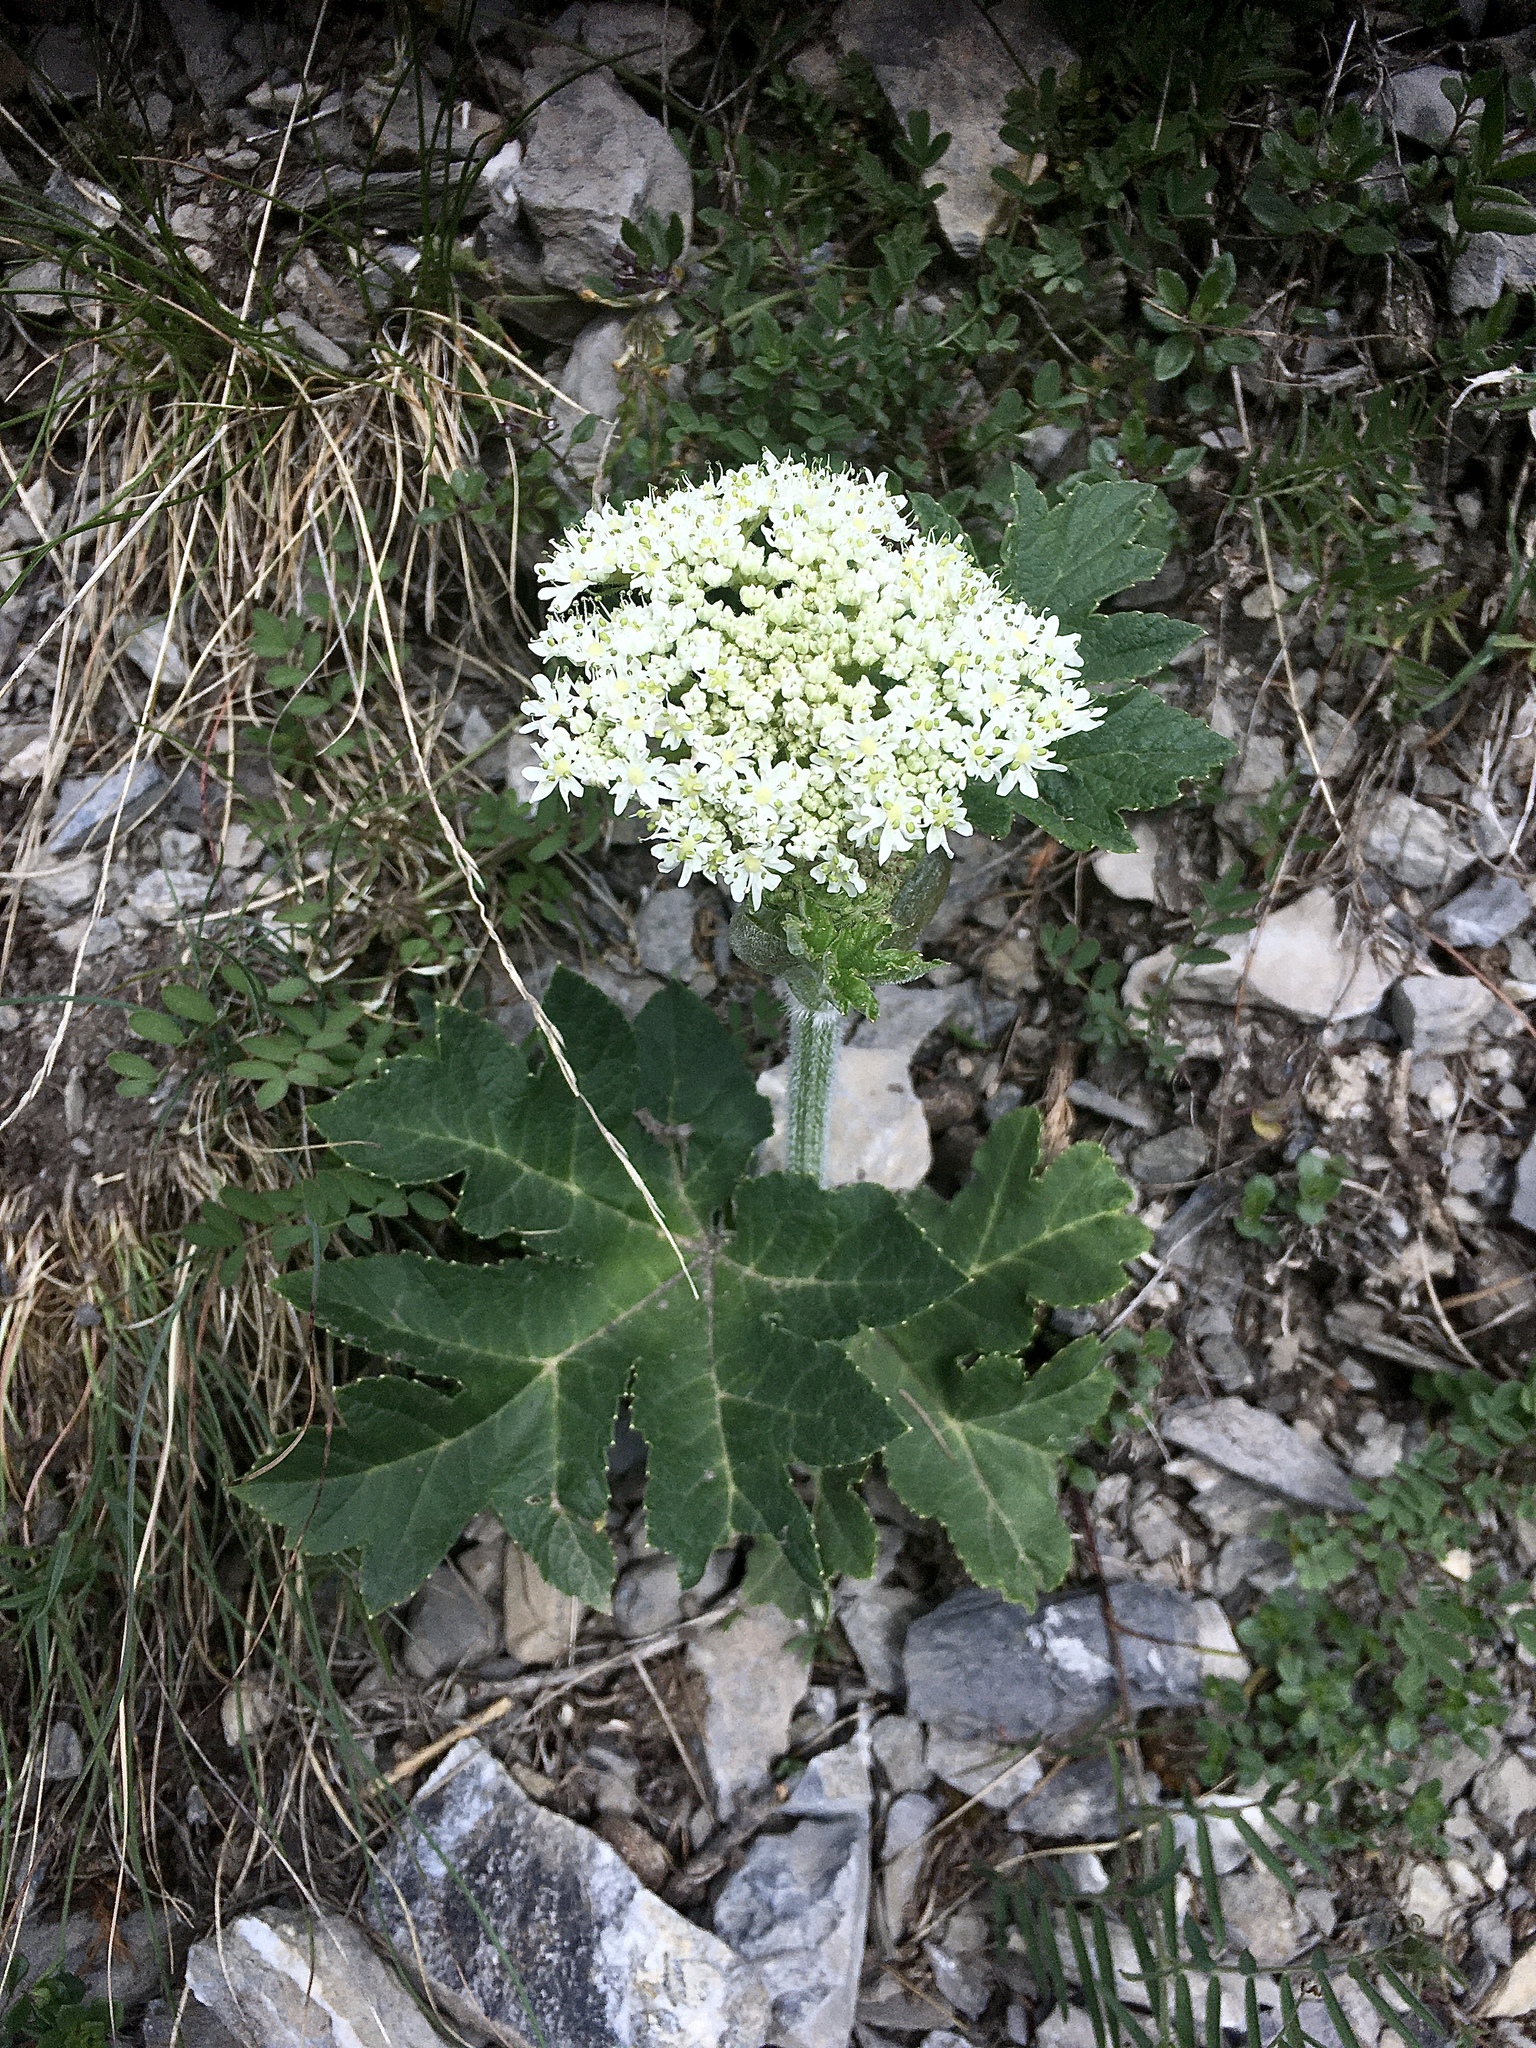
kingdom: Plantae
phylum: Tracheophyta
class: Magnoliopsida
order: Apiales
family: Apiaceae
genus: Heracleum
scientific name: Heracleum sphondylium
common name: Hogweed
